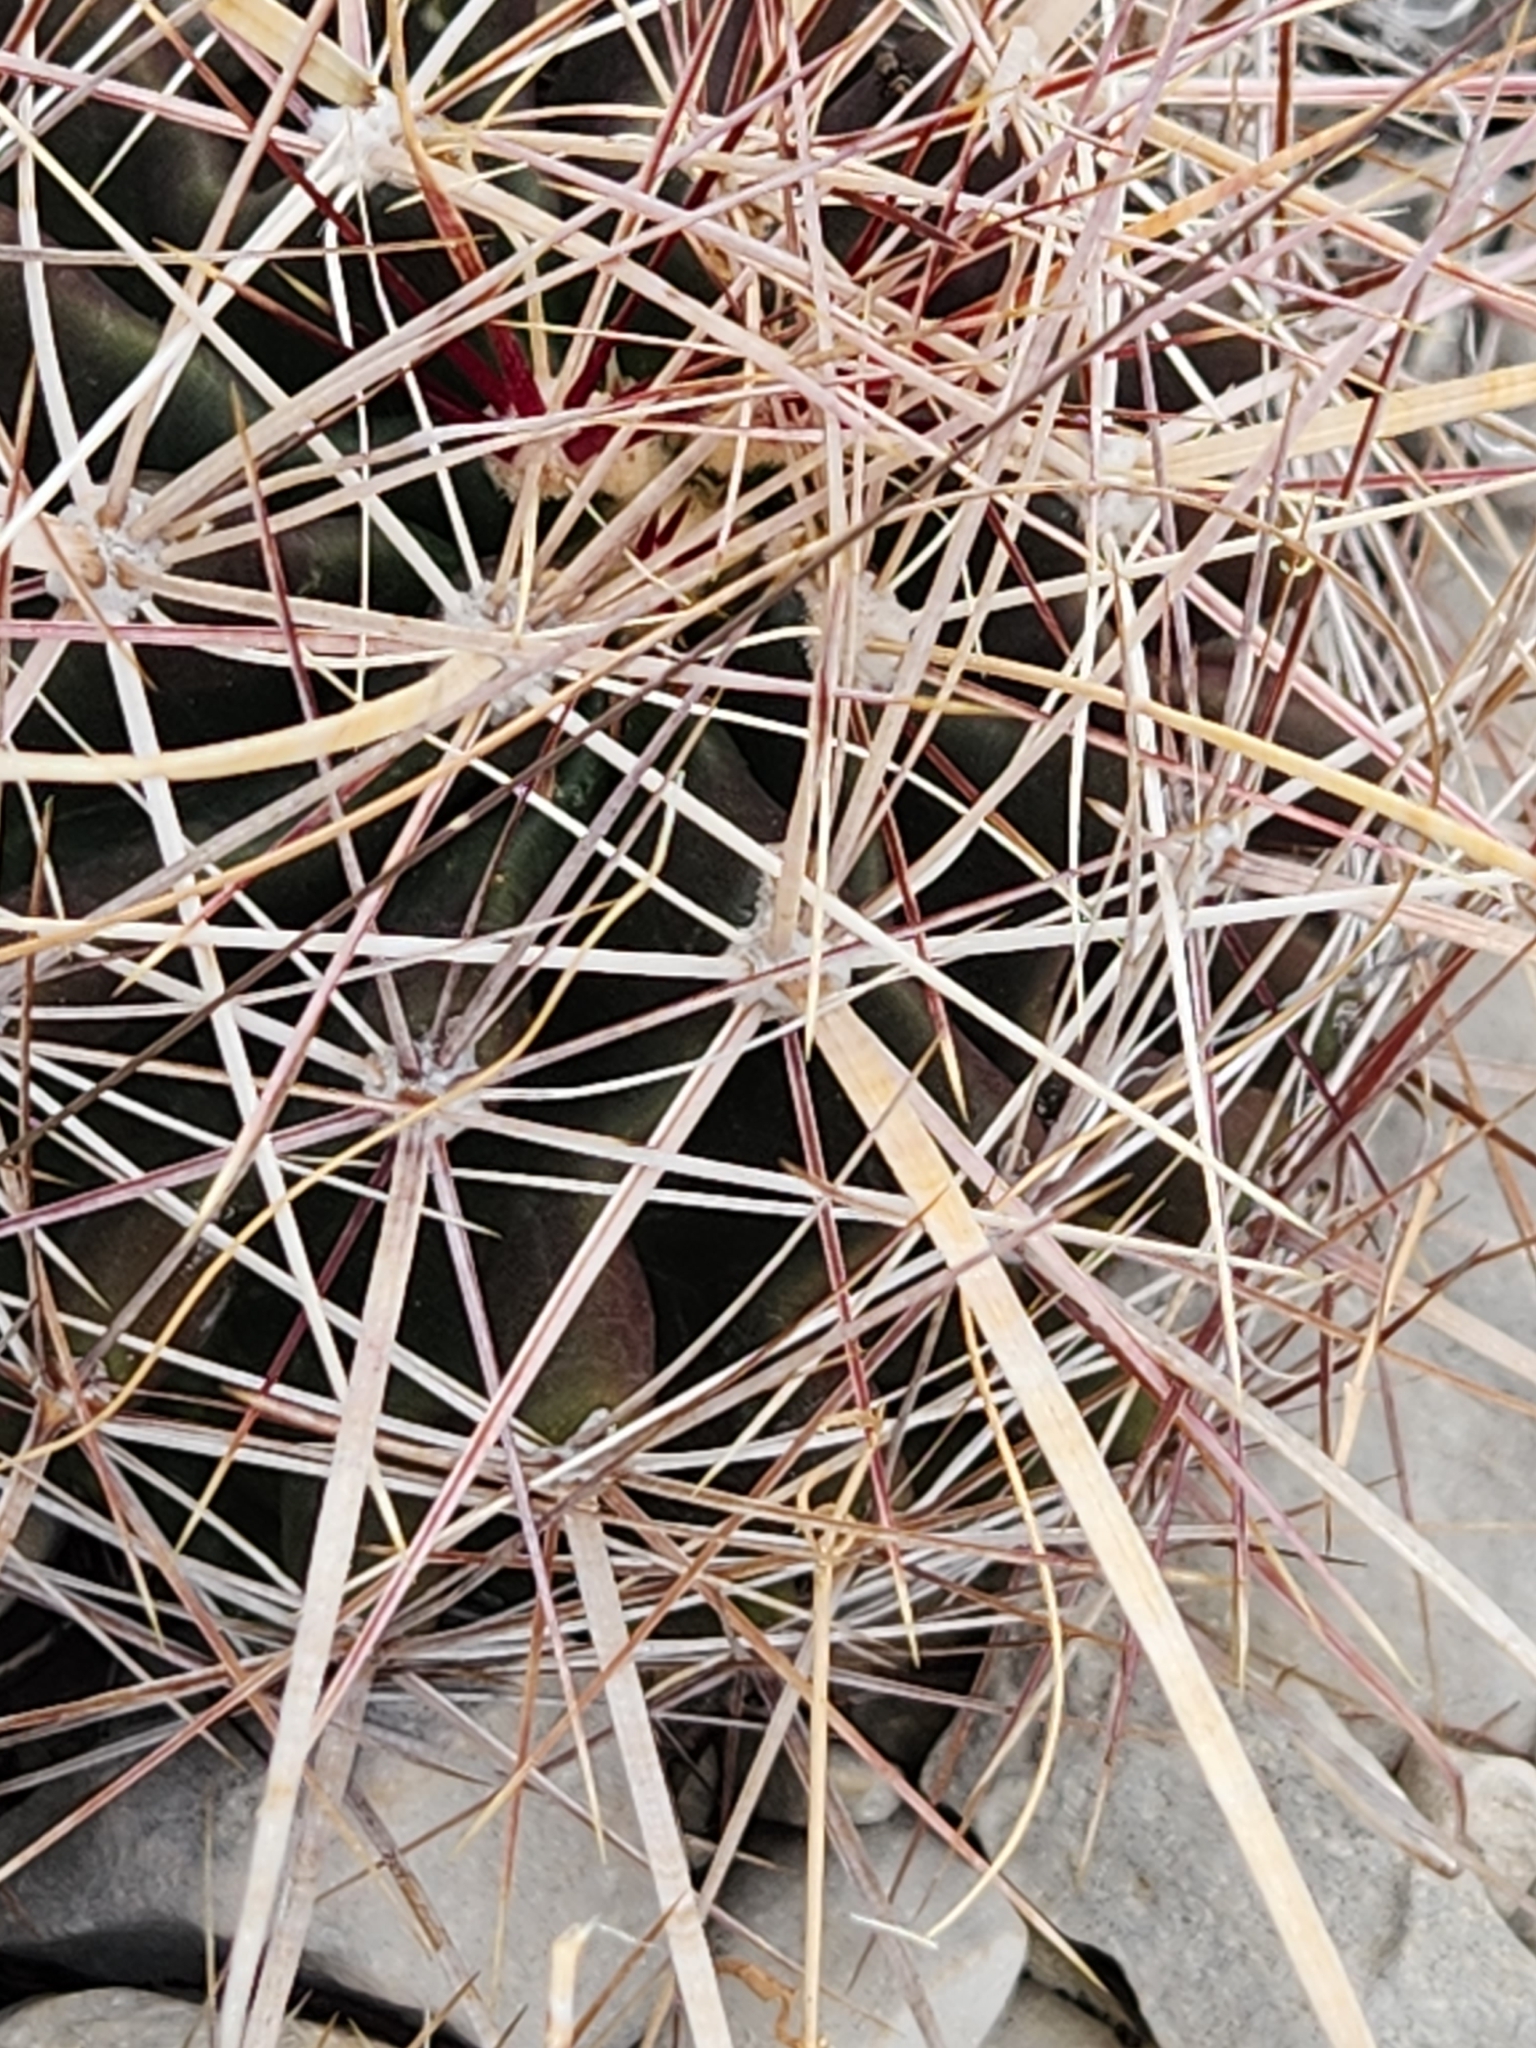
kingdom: Plantae
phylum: Tracheophyta
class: Magnoliopsida
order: Caryophyllales
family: Cactaceae
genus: Bisnaga
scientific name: Bisnaga hamatacantha
